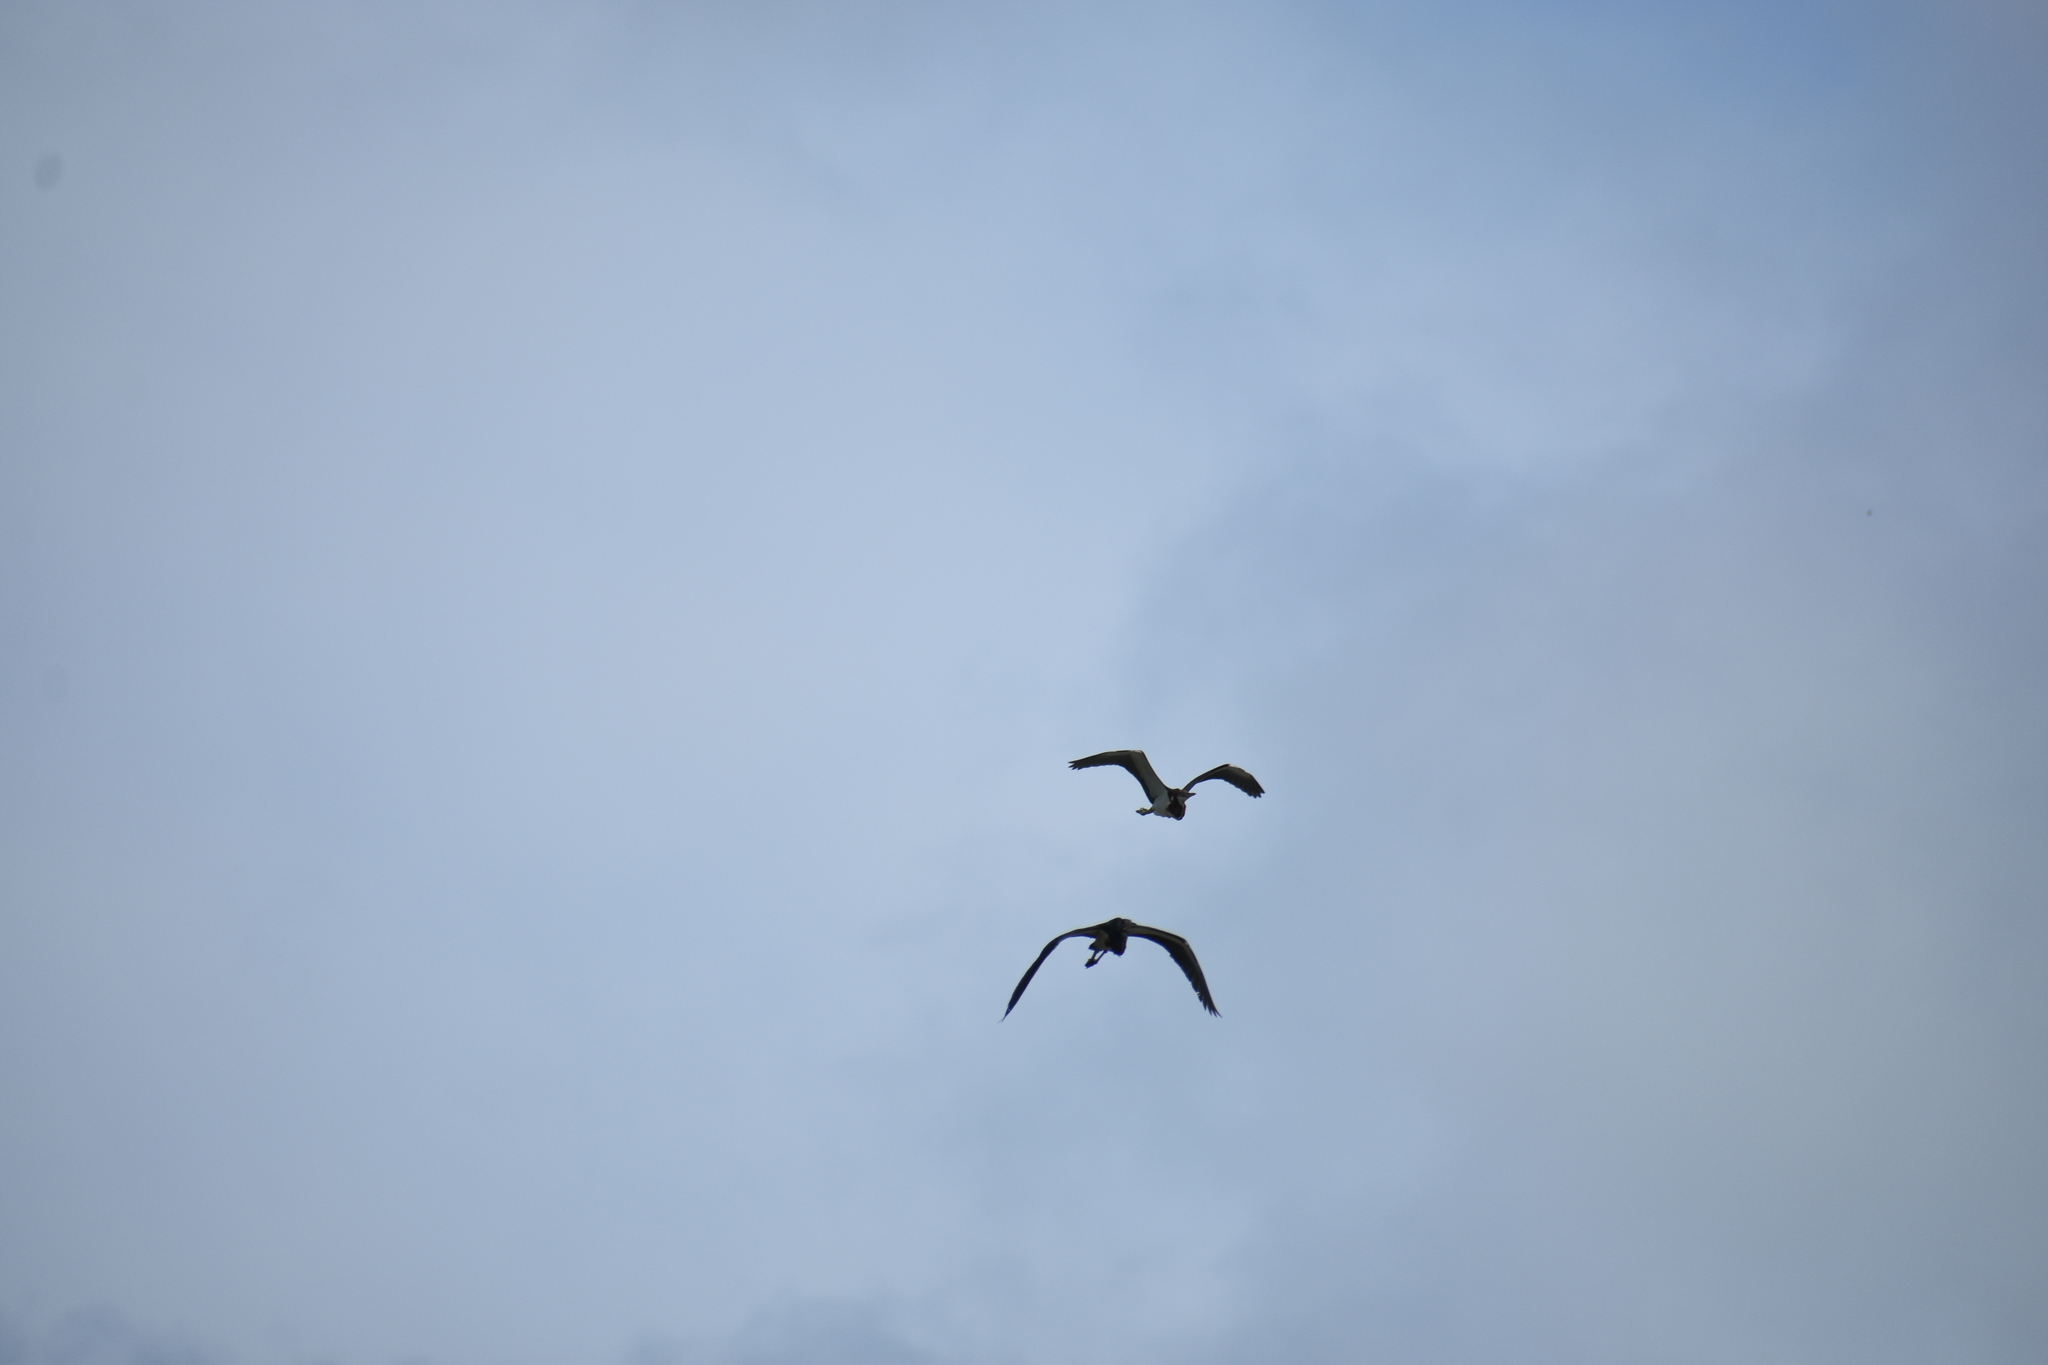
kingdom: Animalia
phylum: Chordata
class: Aves
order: Pelecaniformes
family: Ardeidae
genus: Egretta
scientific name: Egretta tricolor
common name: Tricolored heron
